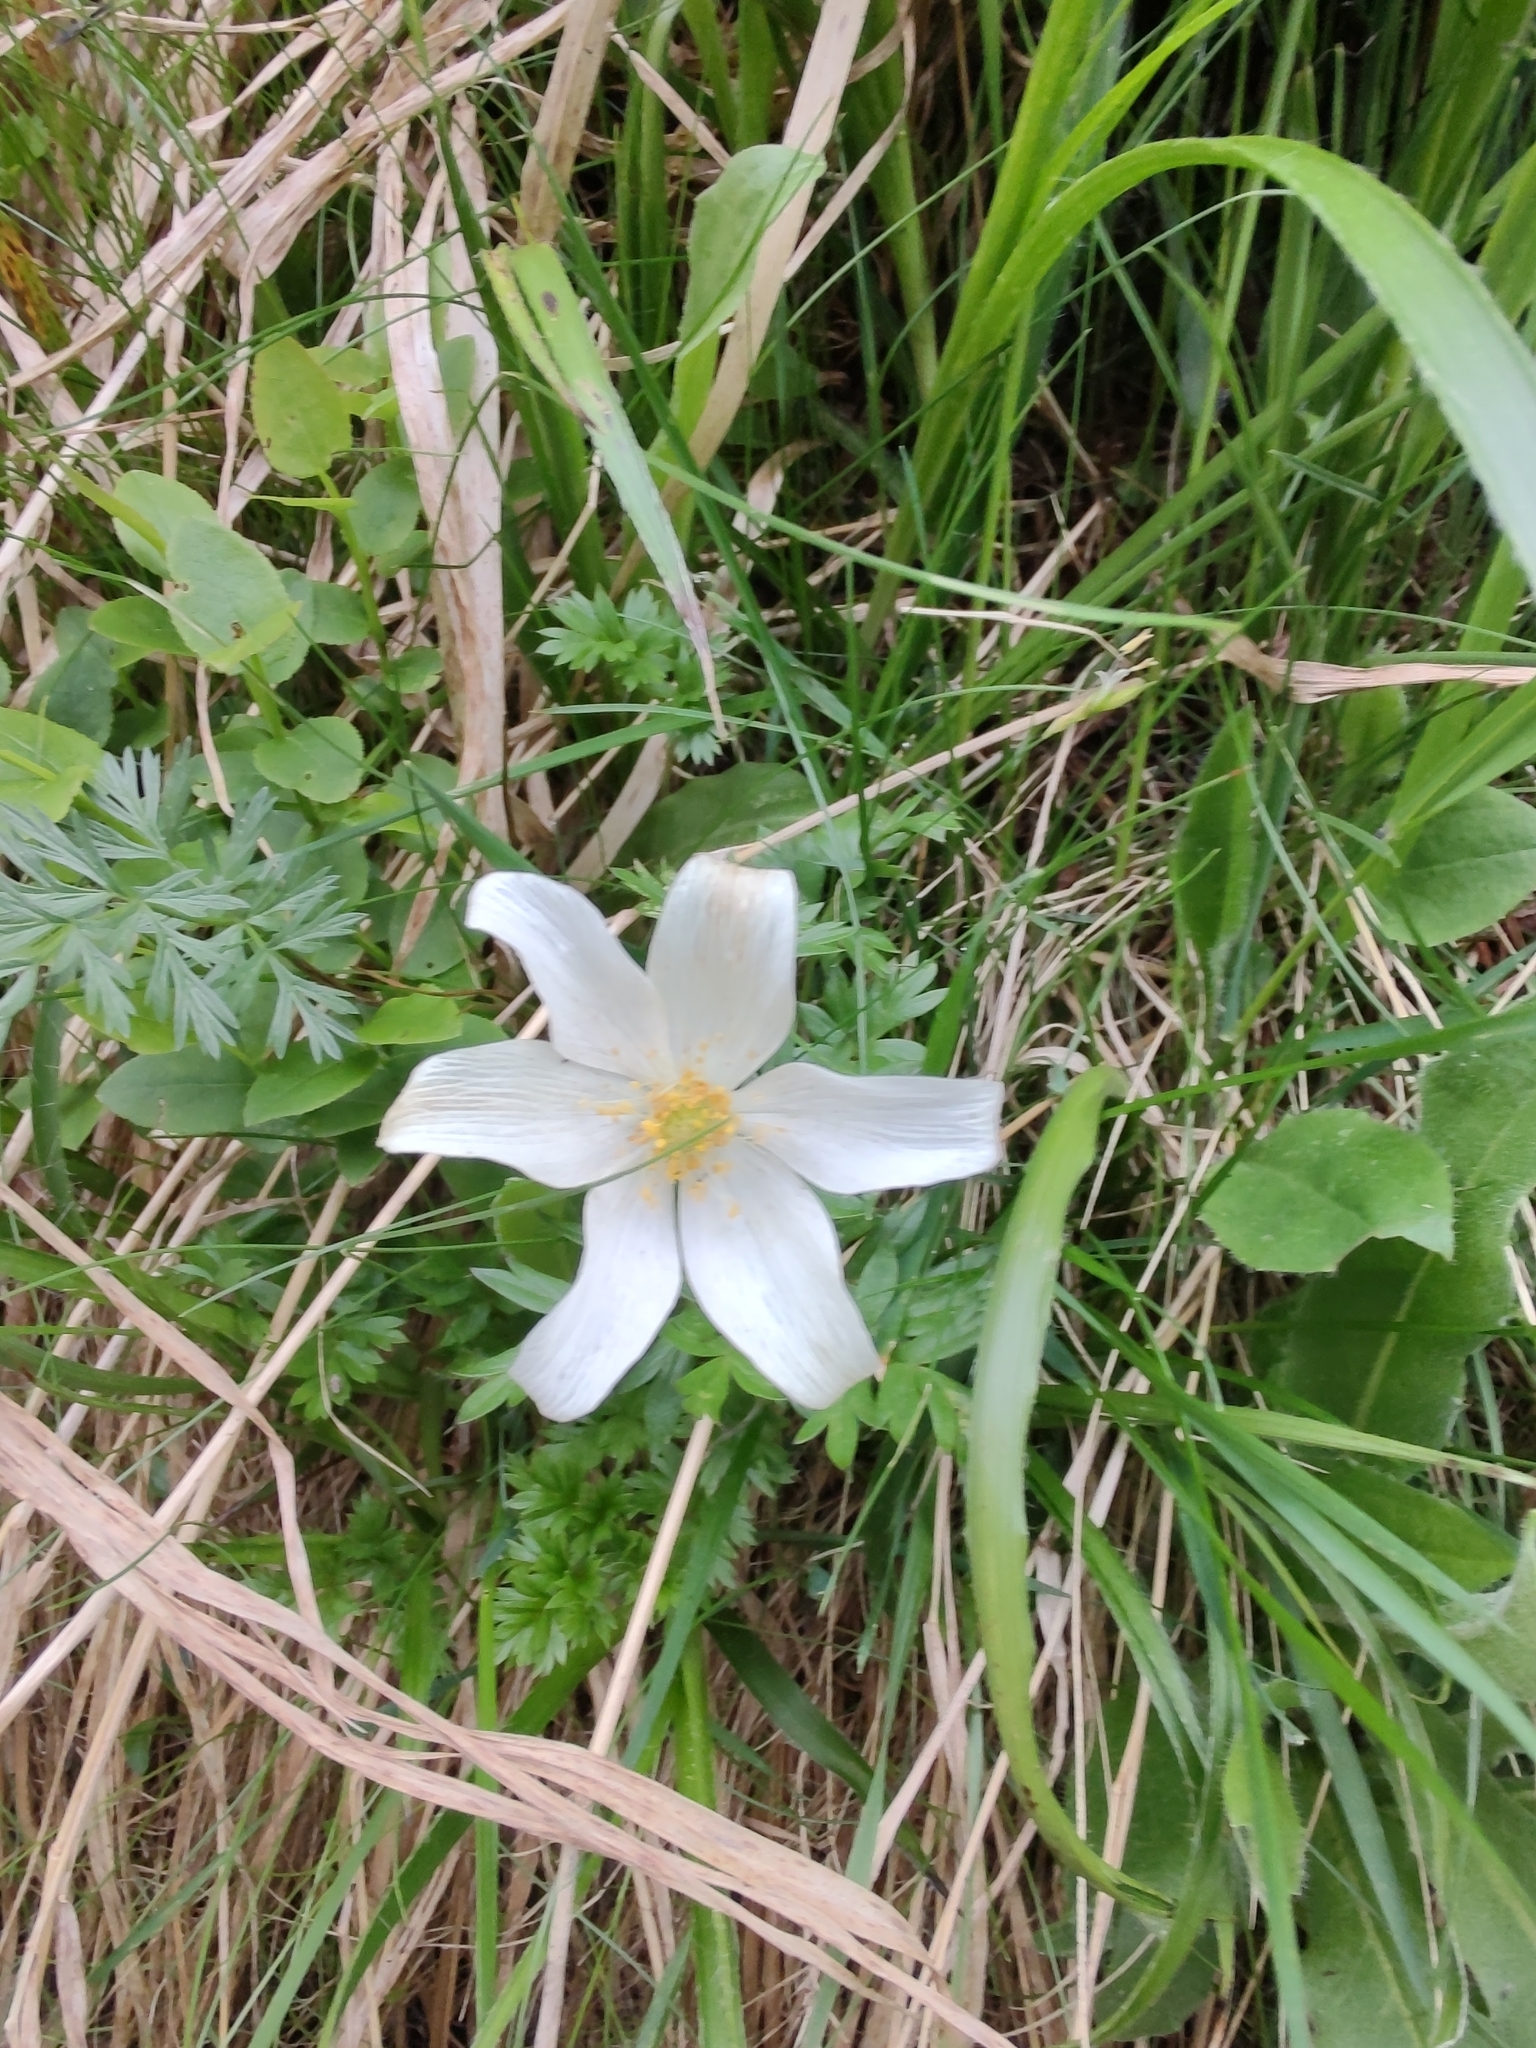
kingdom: Plantae
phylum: Tracheophyta
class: Magnoliopsida
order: Ranunculales
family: Ranunculaceae
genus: Pulsatilla
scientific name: Pulsatilla alpina
